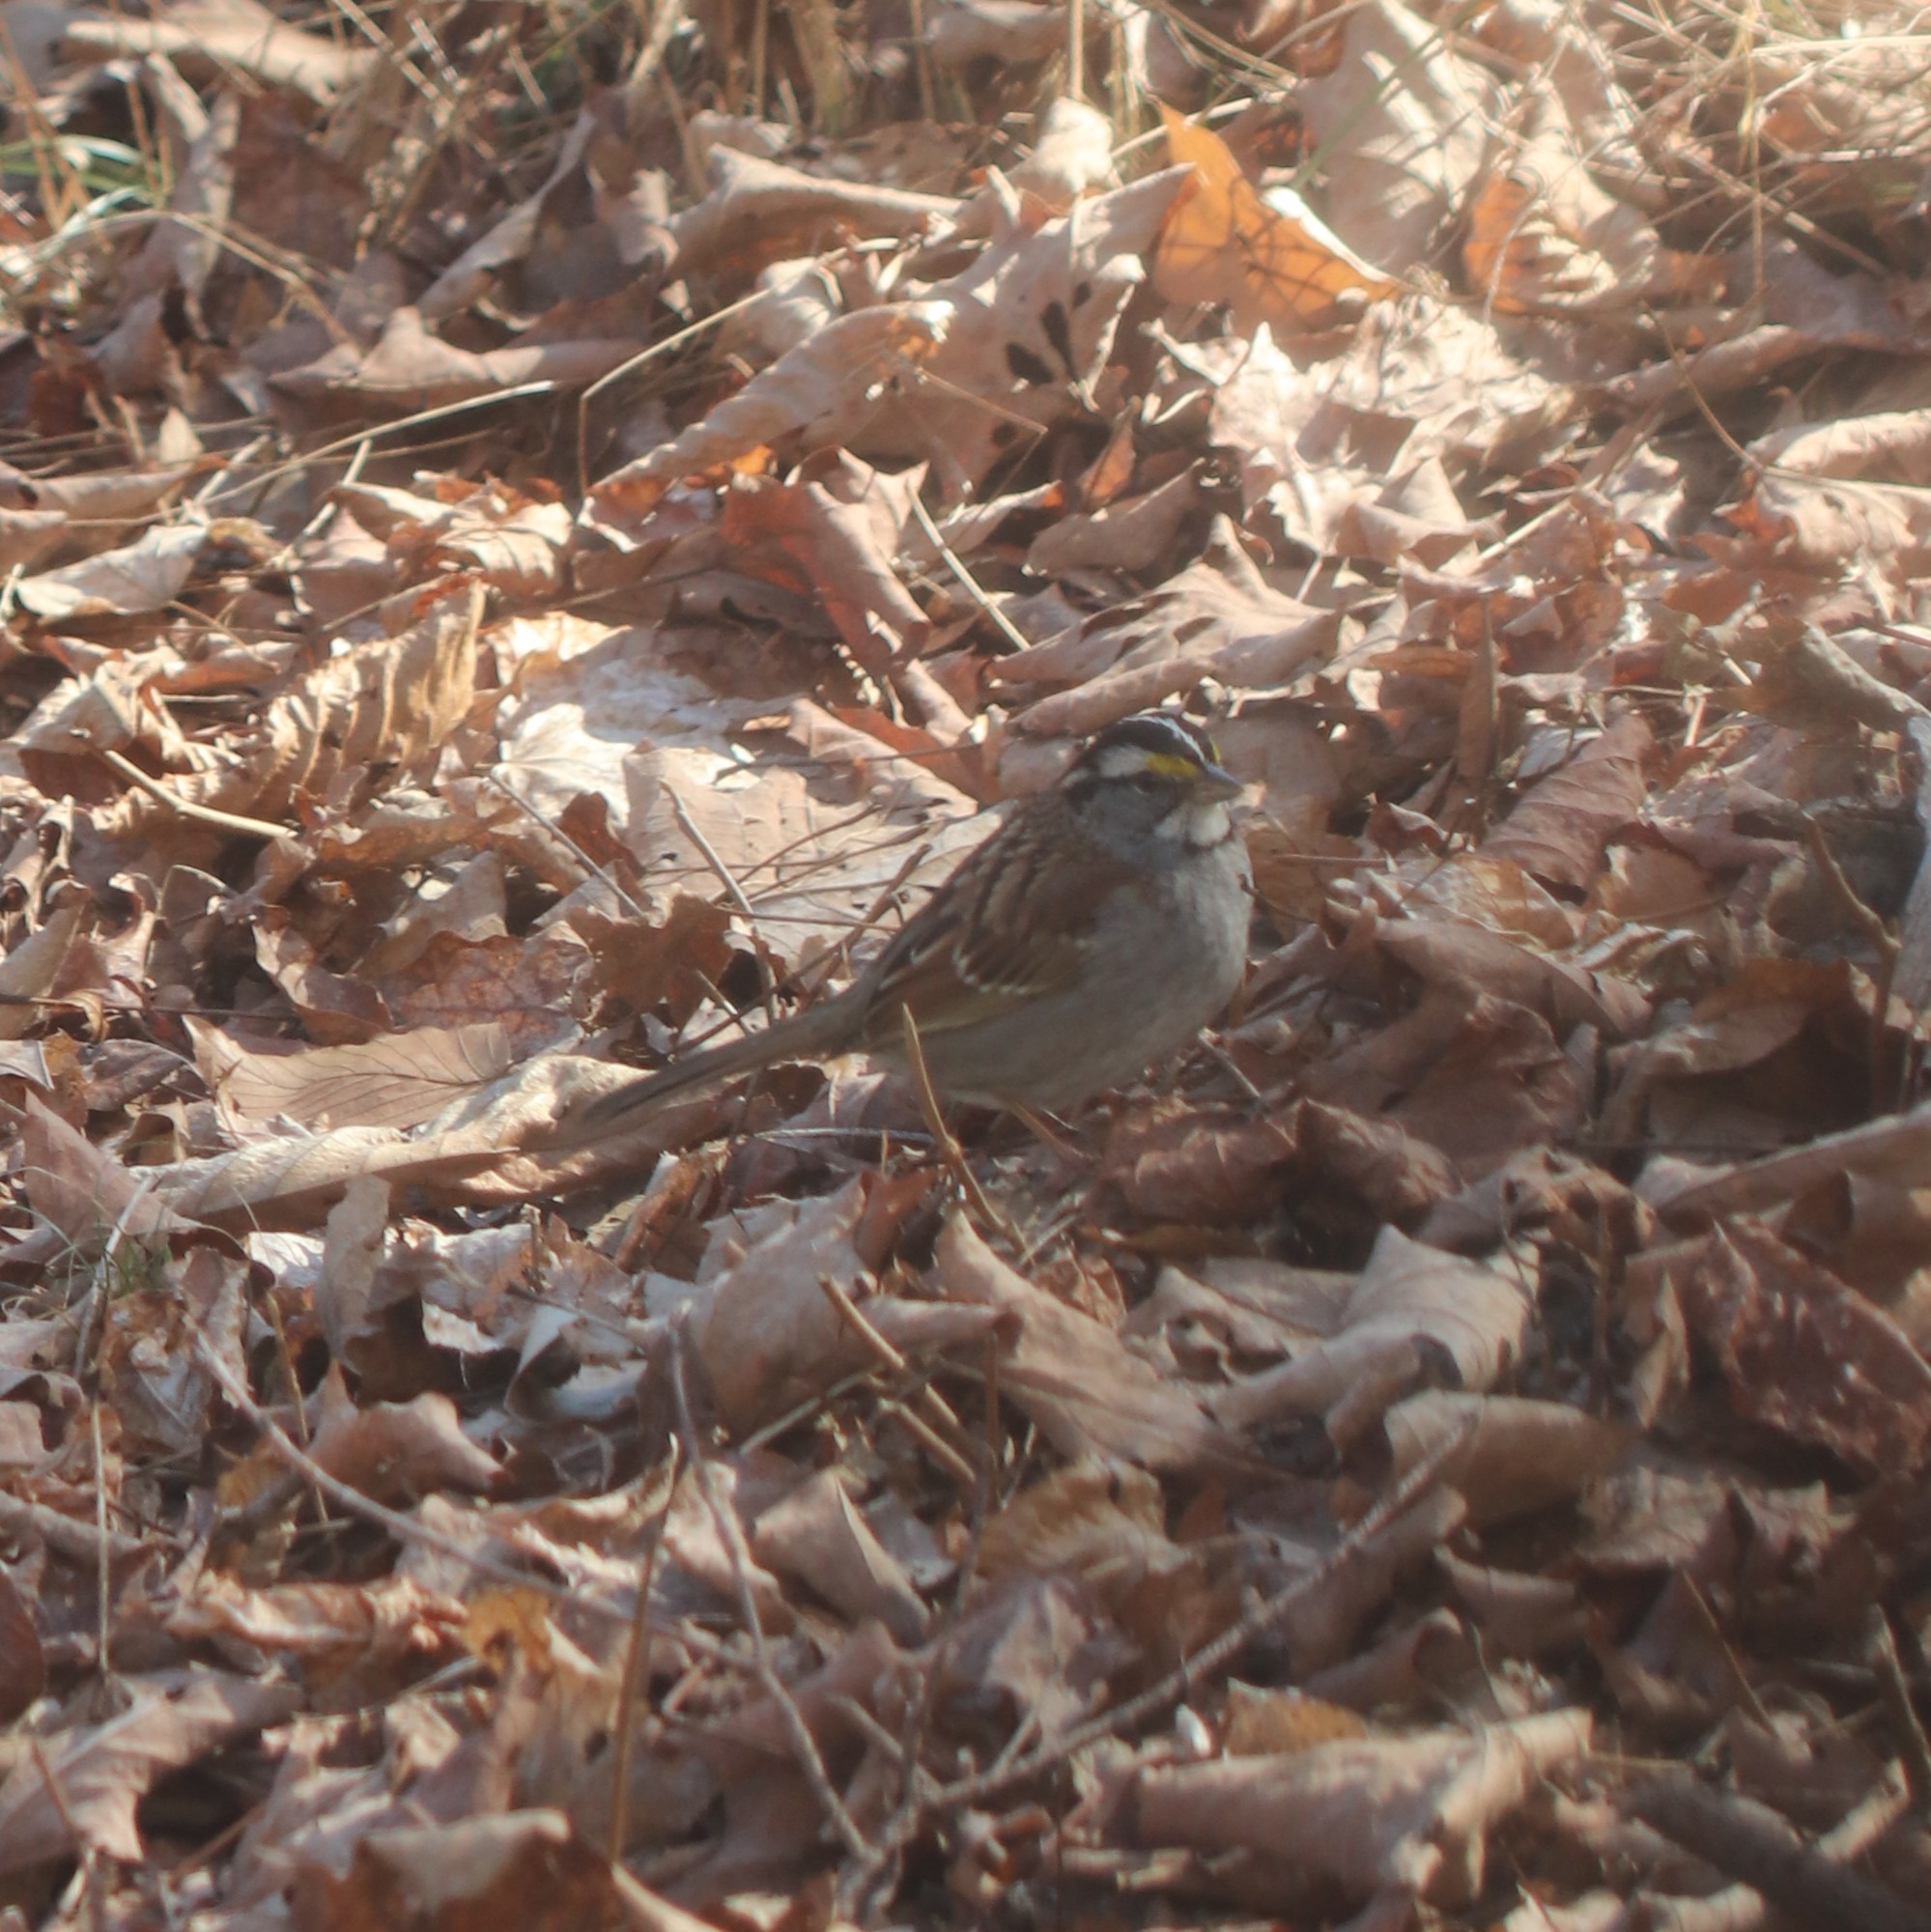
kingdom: Animalia
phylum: Chordata
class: Aves
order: Passeriformes
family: Passerellidae
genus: Zonotrichia
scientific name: Zonotrichia albicollis
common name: White-throated sparrow
